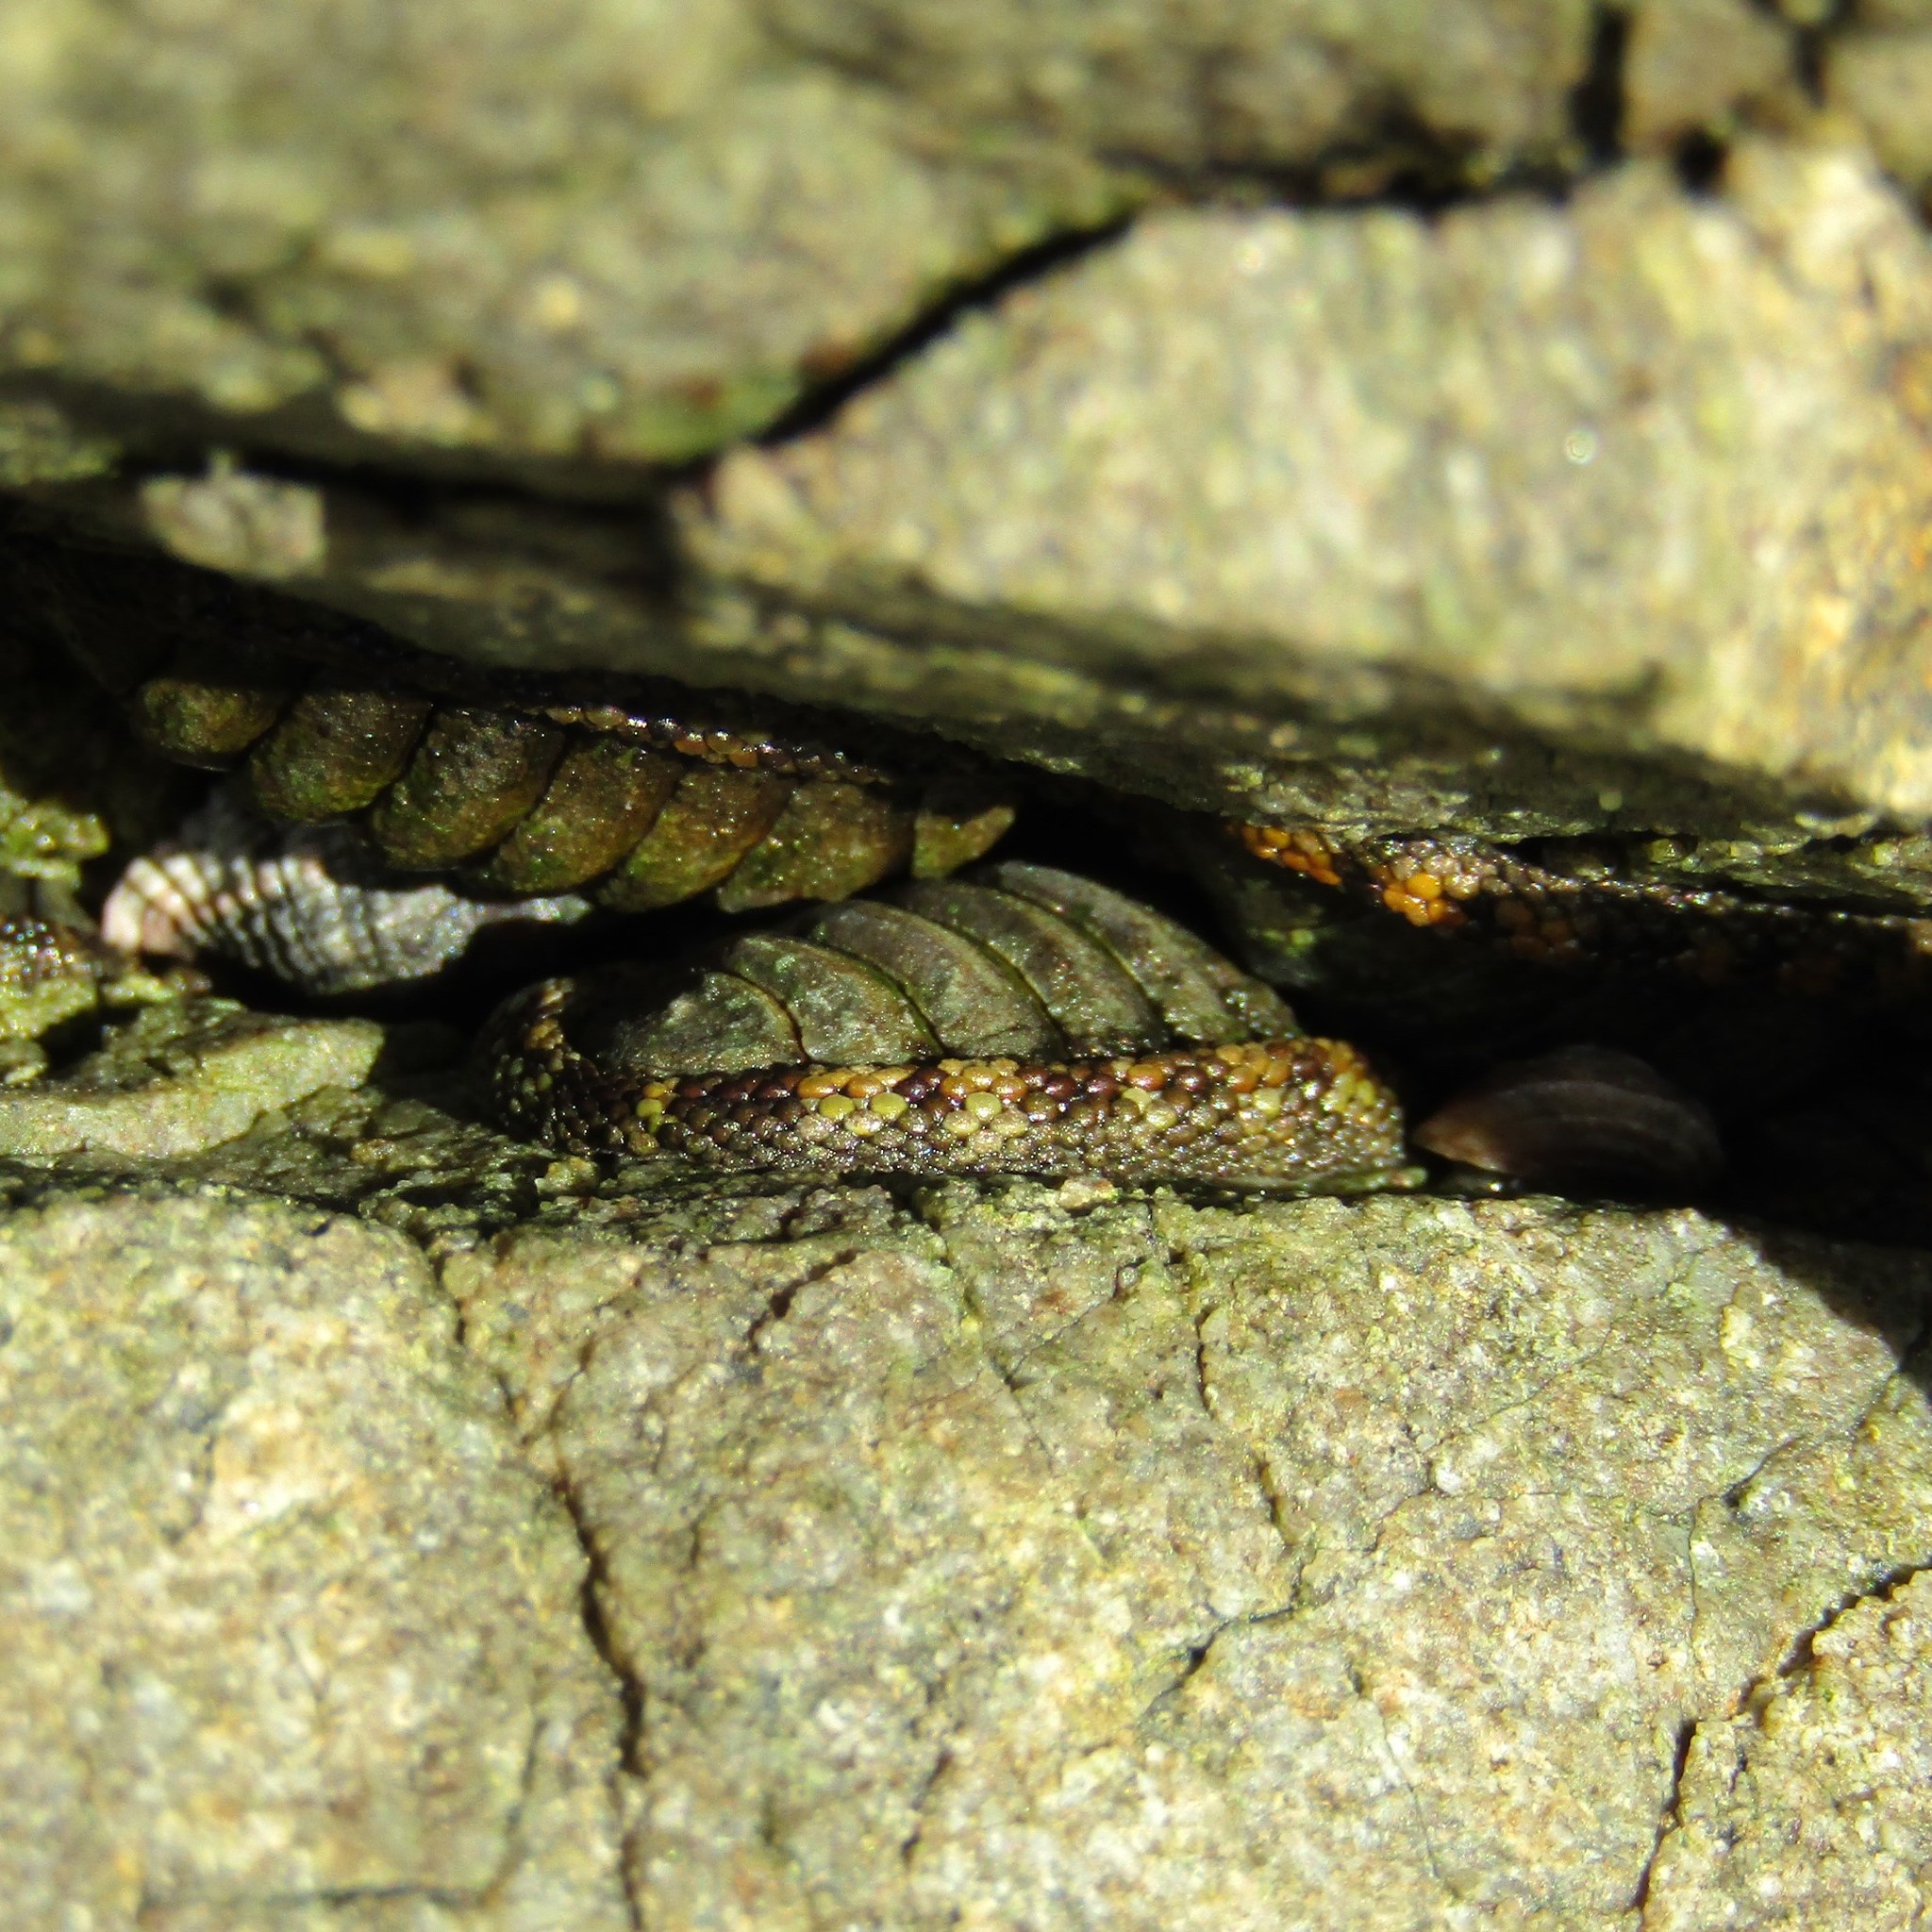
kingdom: Animalia
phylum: Mollusca
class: Polyplacophora
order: Chitonida
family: Chitonidae
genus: Sypharochiton
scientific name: Sypharochiton pelliserpentis
